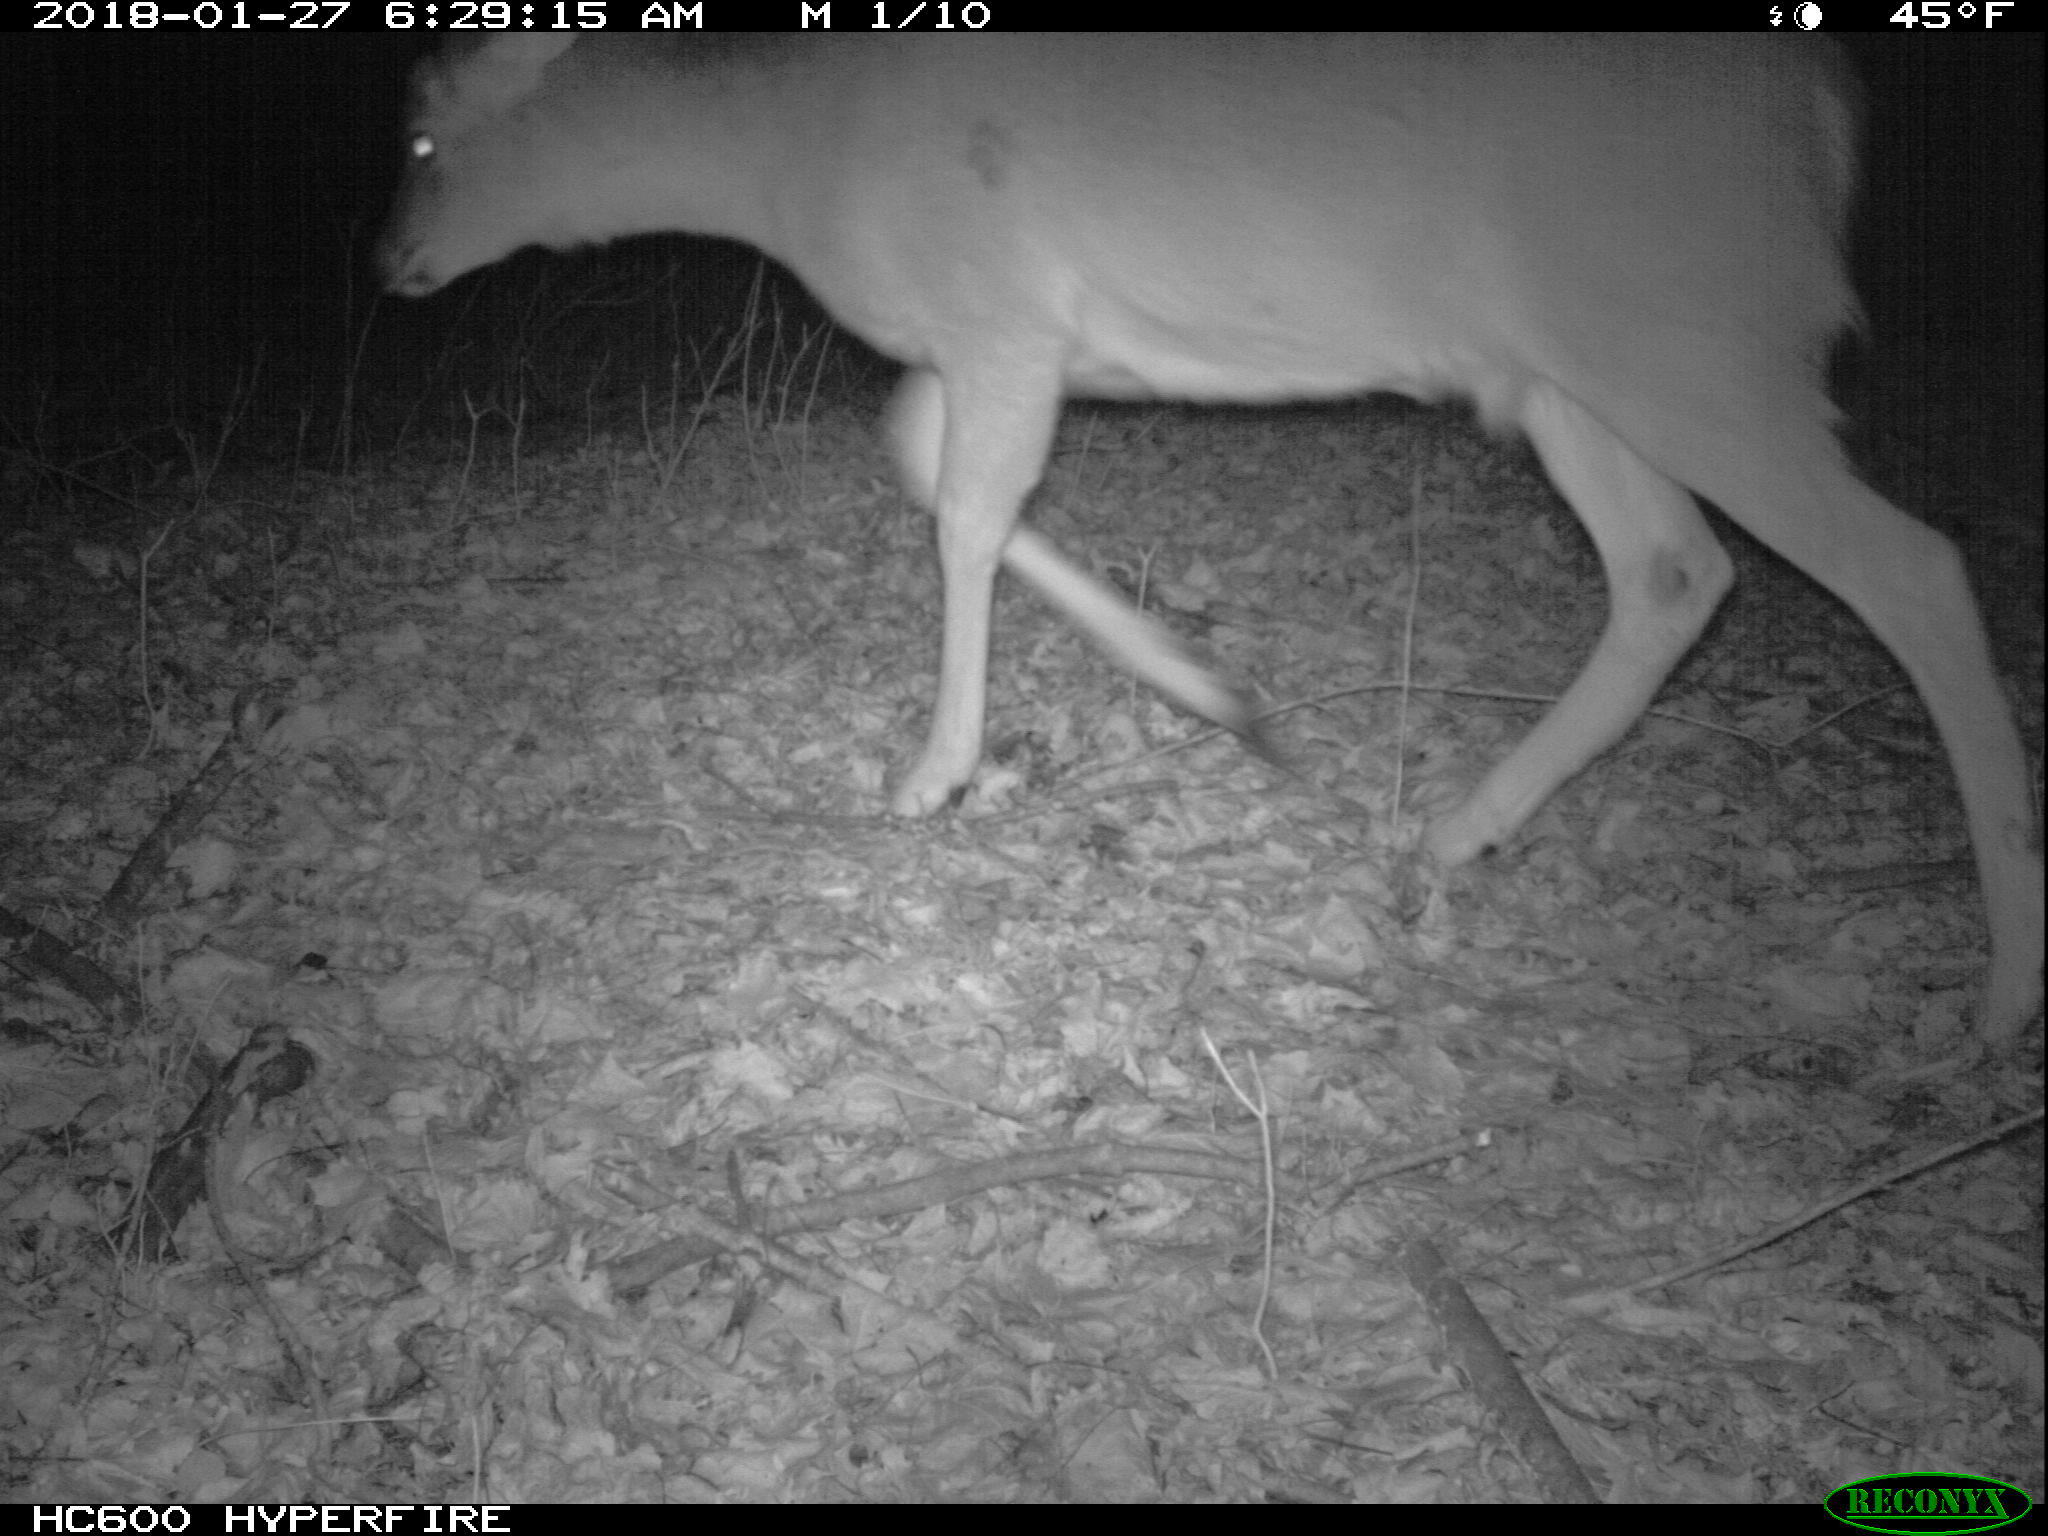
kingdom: Animalia
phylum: Chordata
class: Mammalia
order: Artiodactyla
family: Cervidae
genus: Odocoileus
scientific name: Odocoileus virginianus
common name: White-tailed deer
